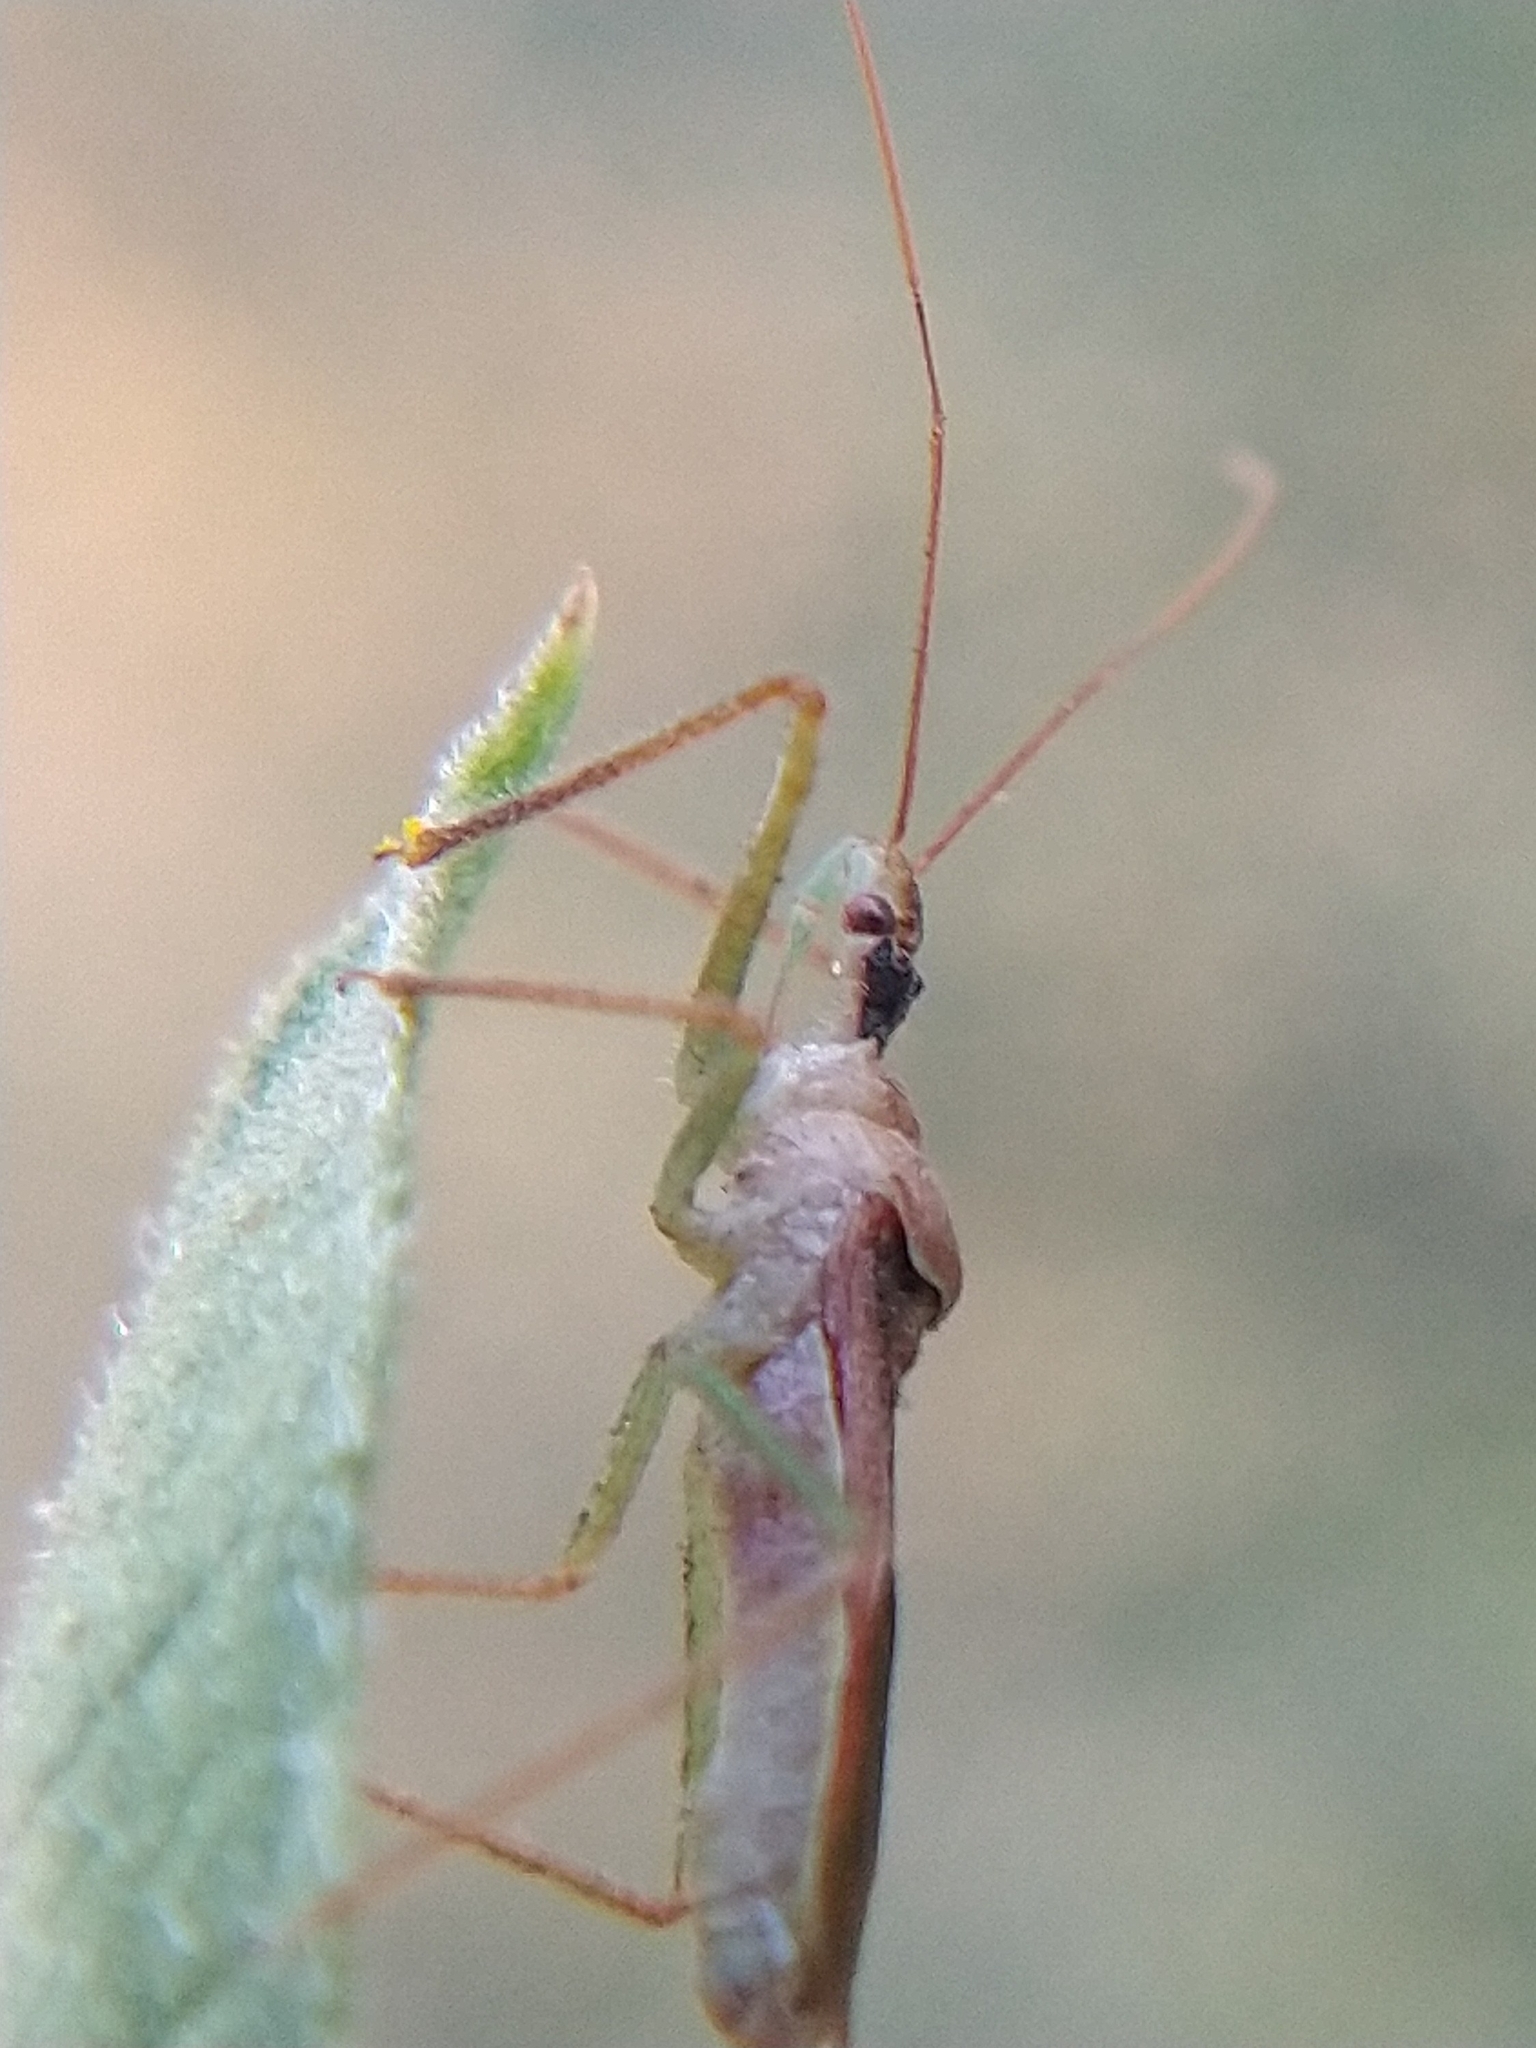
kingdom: Animalia
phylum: Arthropoda
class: Insecta
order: Hemiptera
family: Reduviidae
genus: Zelus
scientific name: Zelus renardii
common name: Assassin bug
